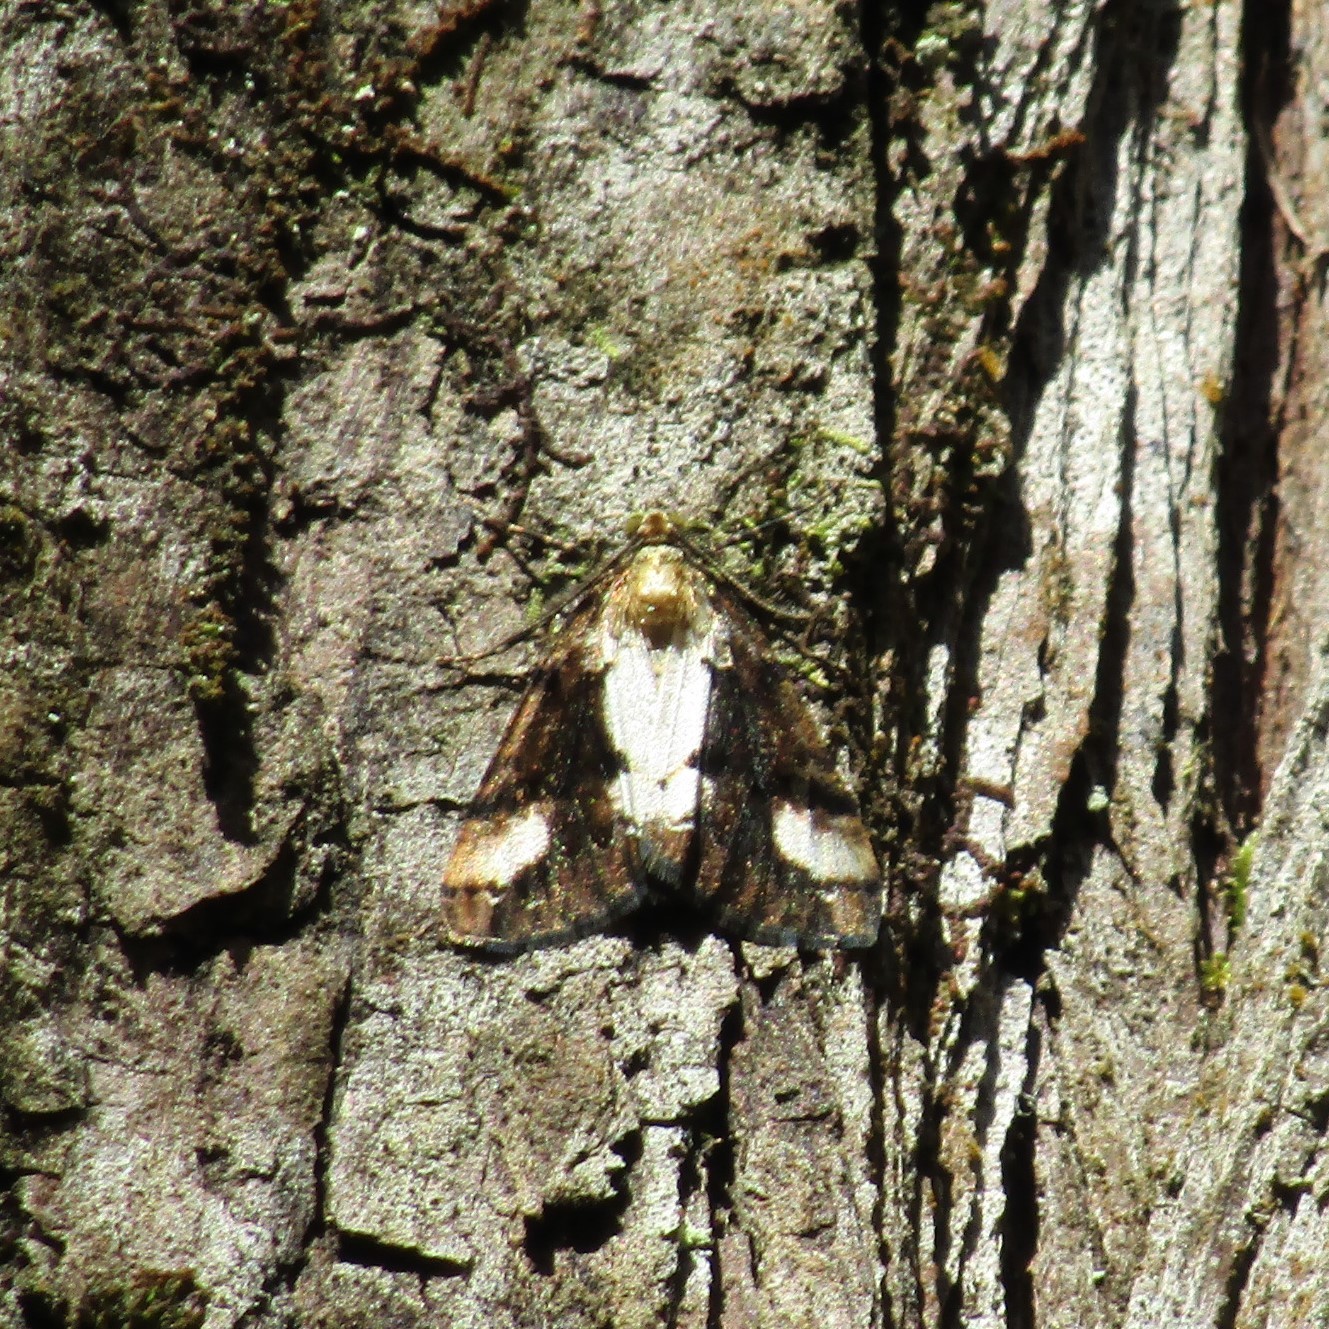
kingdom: Animalia
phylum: Arthropoda
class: Insecta
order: Lepidoptera
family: Geometridae
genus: Pseudocoremia
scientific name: Pseudocoremia leucelaea
